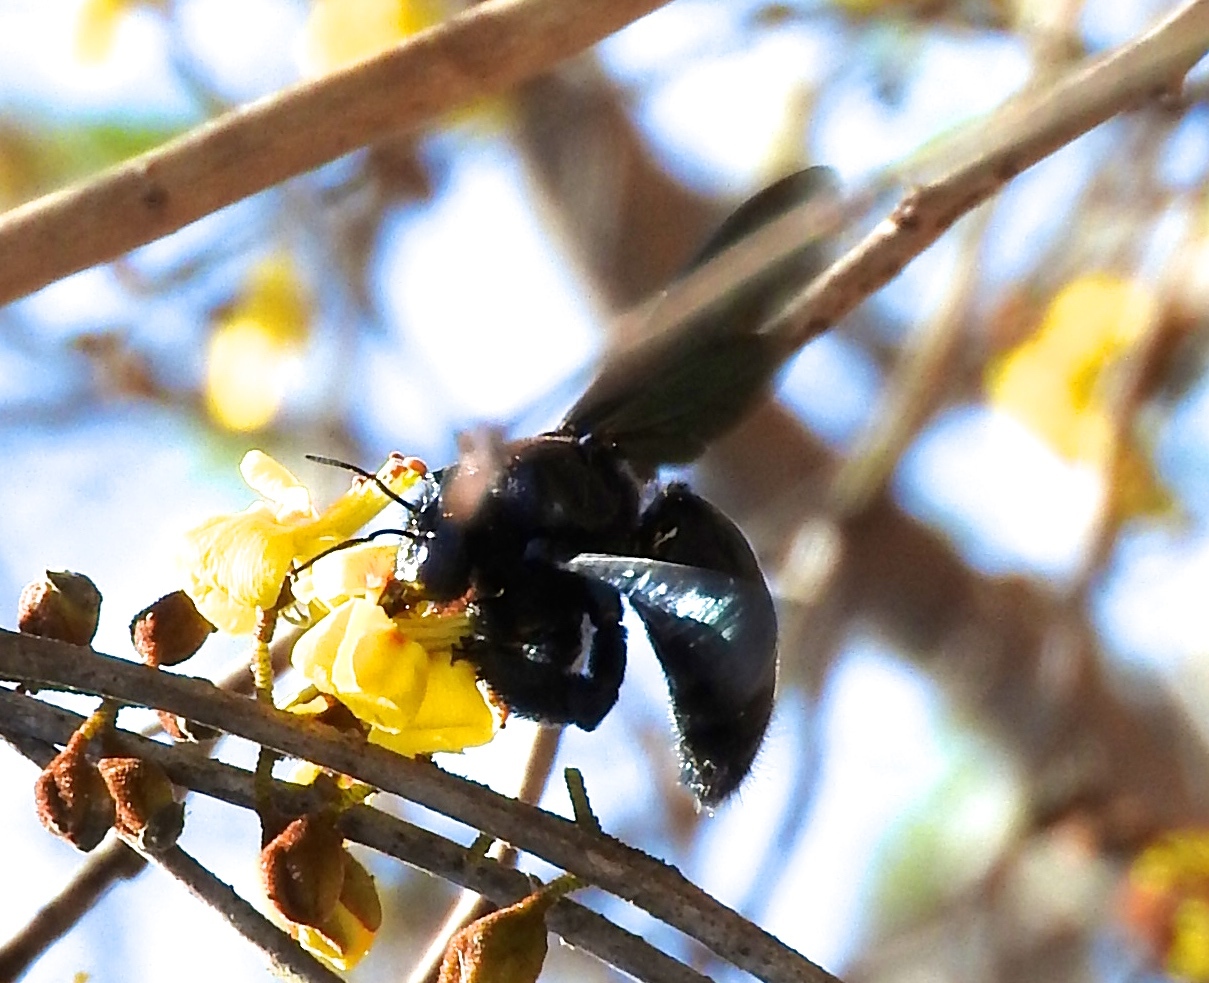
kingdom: Animalia
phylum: Arthropoda
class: Insecta
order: Hymenoptera
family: Apidae
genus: Xylocopa
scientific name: Xylocopa fimbriata
